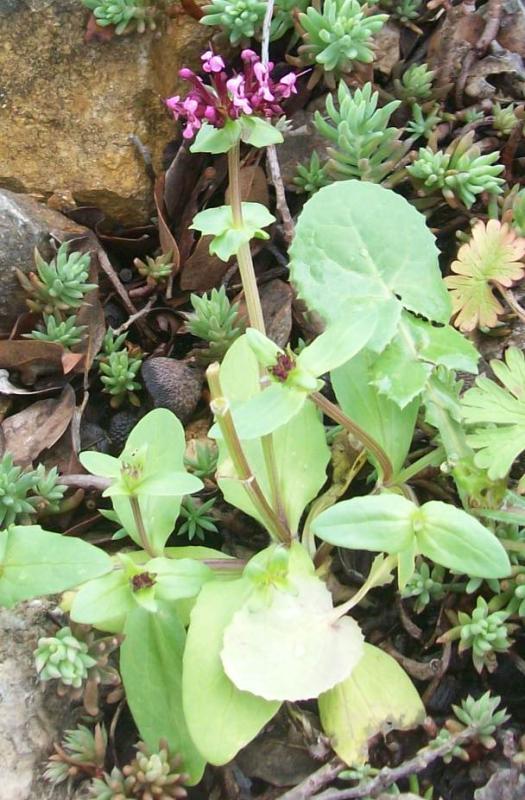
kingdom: Plantae
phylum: Tracheophyta
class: Magnoliopsida
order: Dipsacales
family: Caprifoliaceae
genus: Fedia
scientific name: Fedia cornucopiae
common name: Horn-of-plenty
